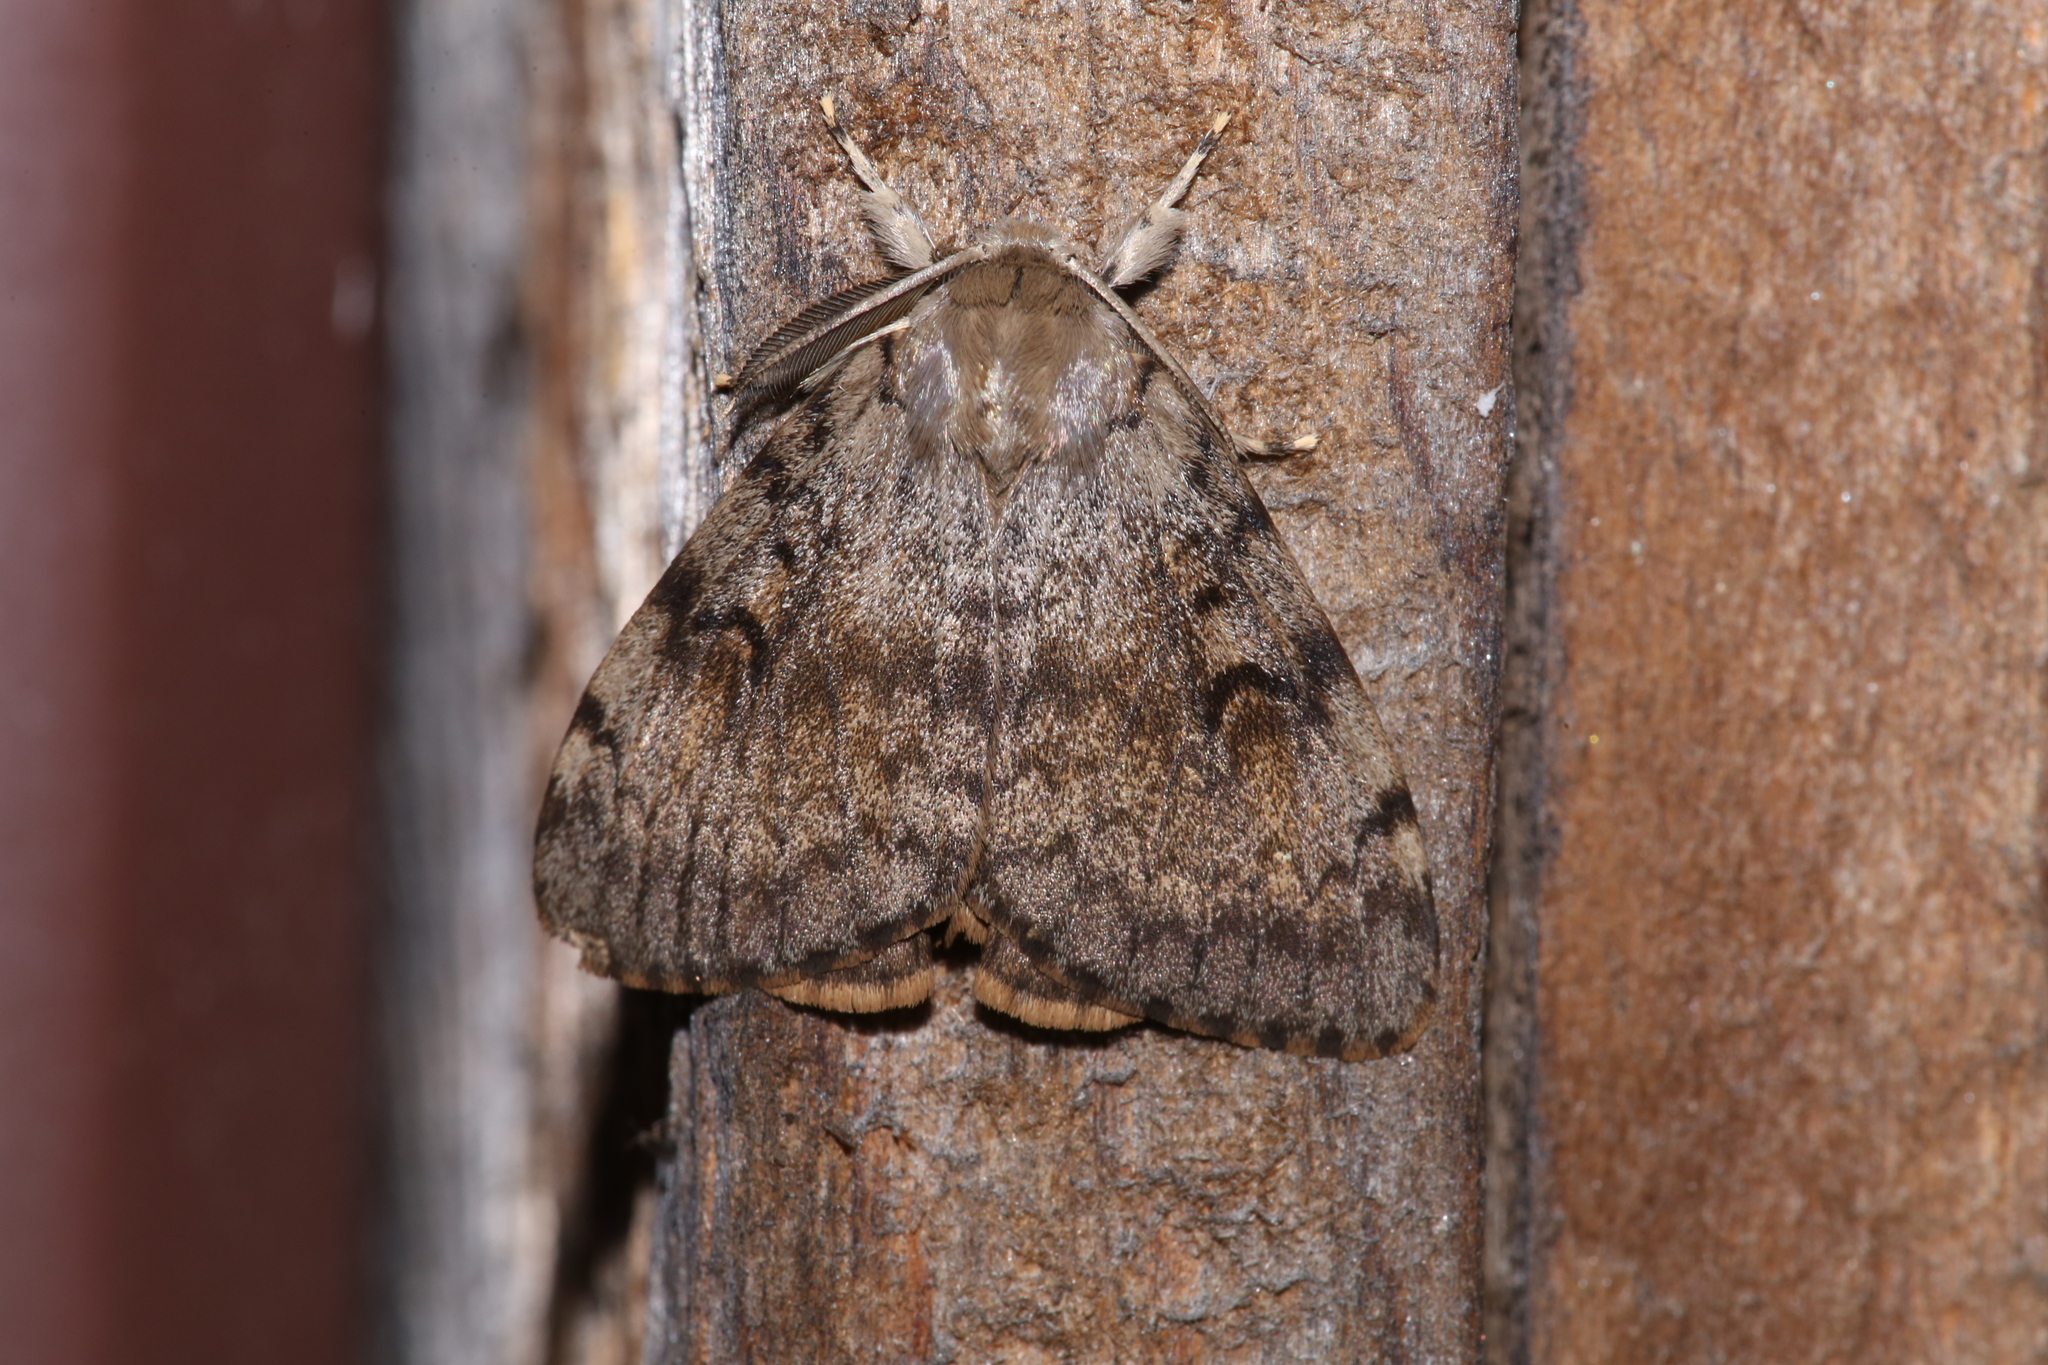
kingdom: Animalia
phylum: Arthropoda
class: Insecta
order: Lepidoptera
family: Erebidae
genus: Lymantria
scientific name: Lymantria dispar
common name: Gypsy moth
